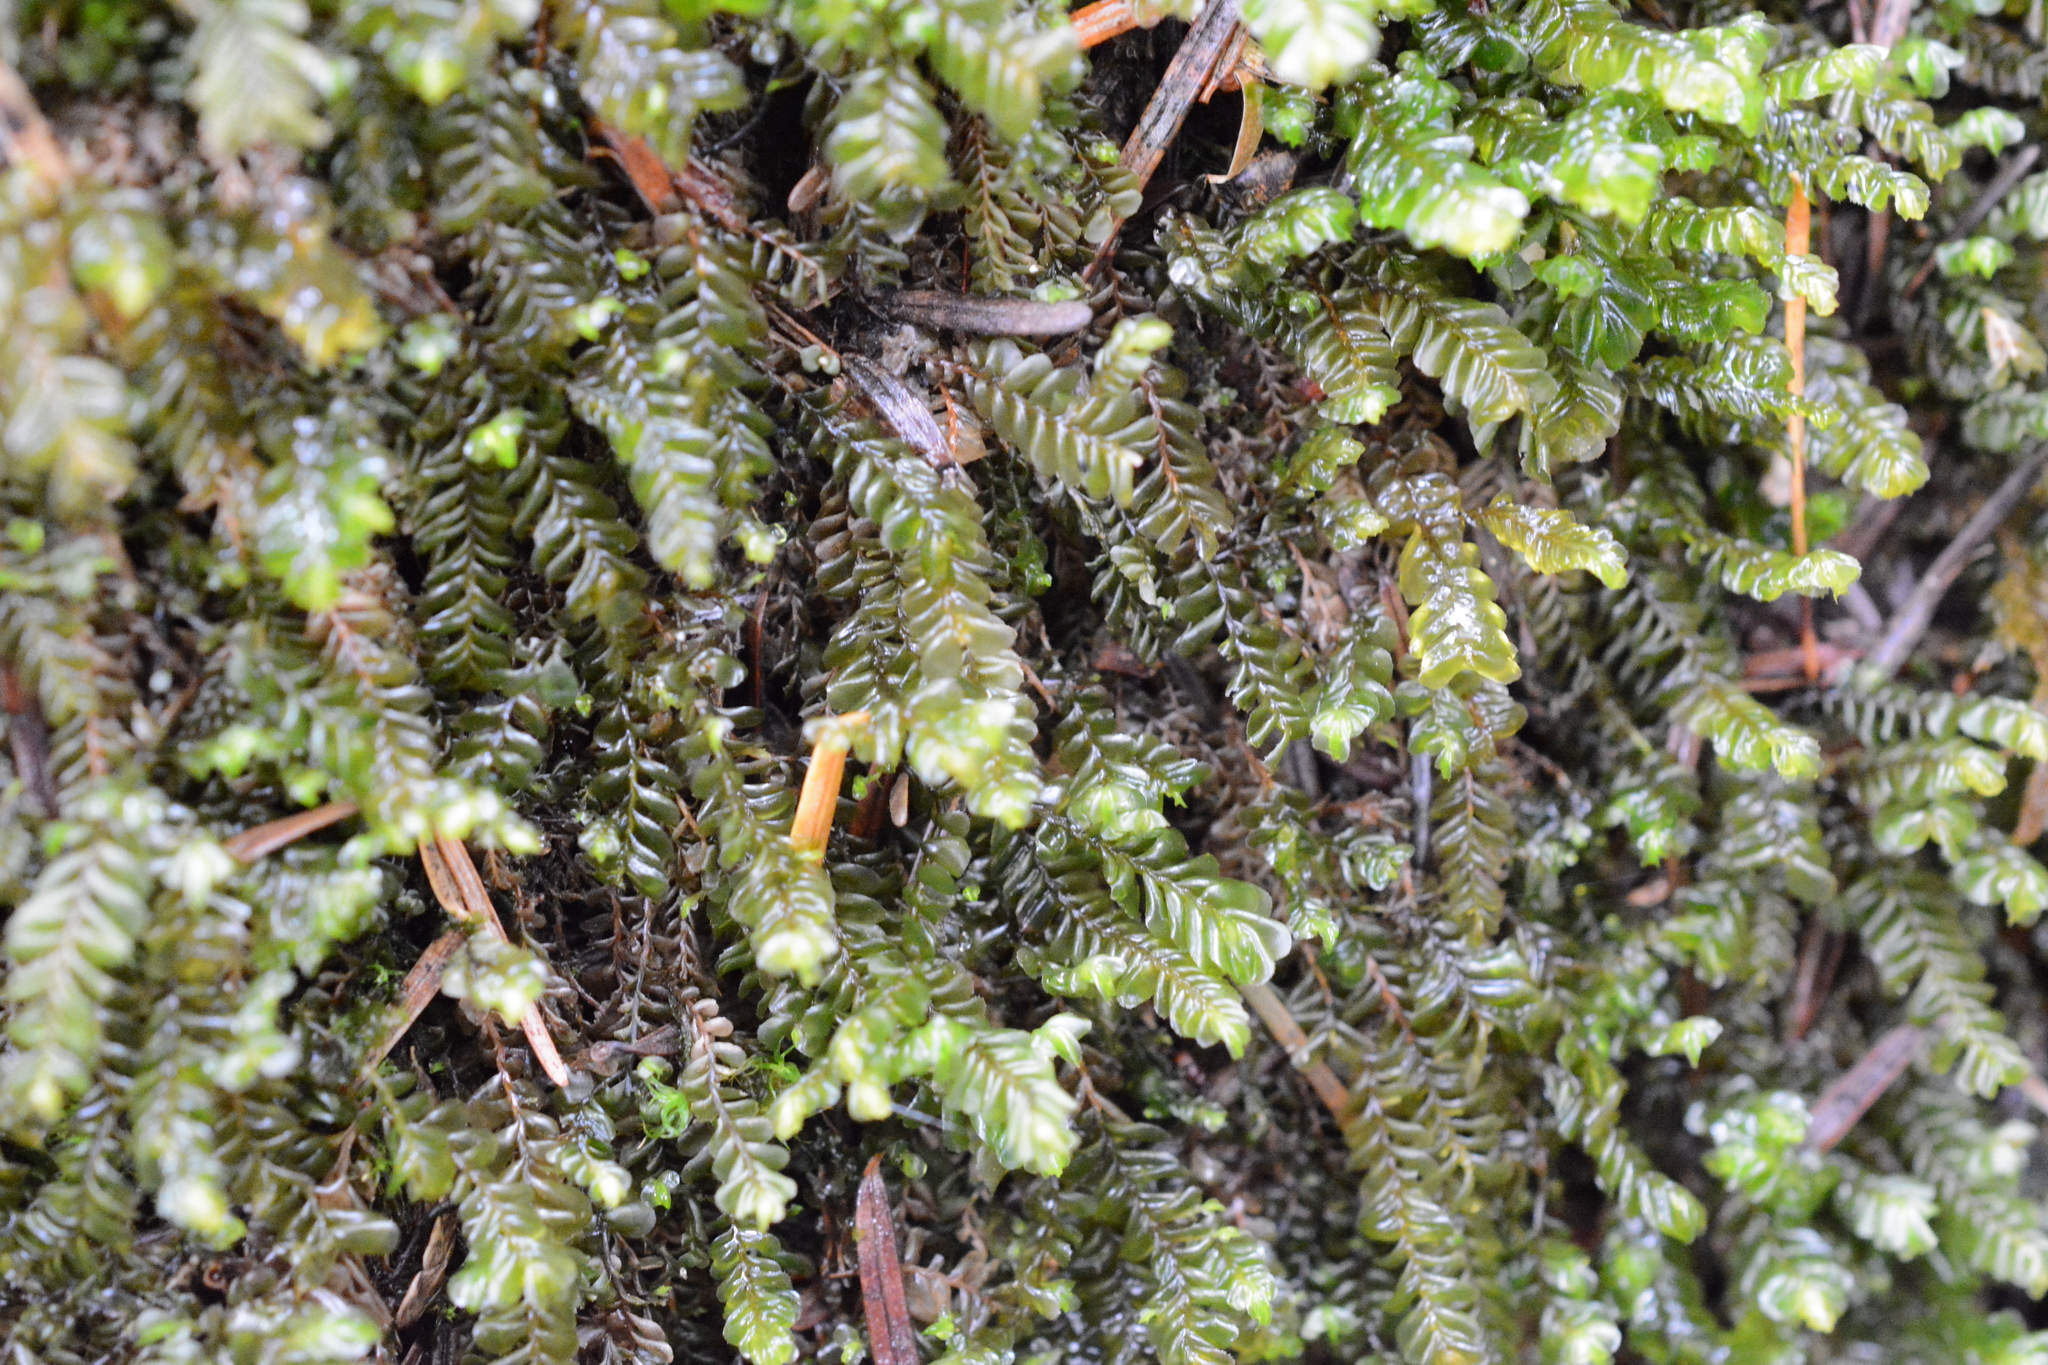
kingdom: Plantae
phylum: Marchantiophyta
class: Jungermanniopsida
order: Jungermanniales
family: Plagiochilaceae
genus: Plagiochila
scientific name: Plagiochila porelloides
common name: Lesser featherwort
